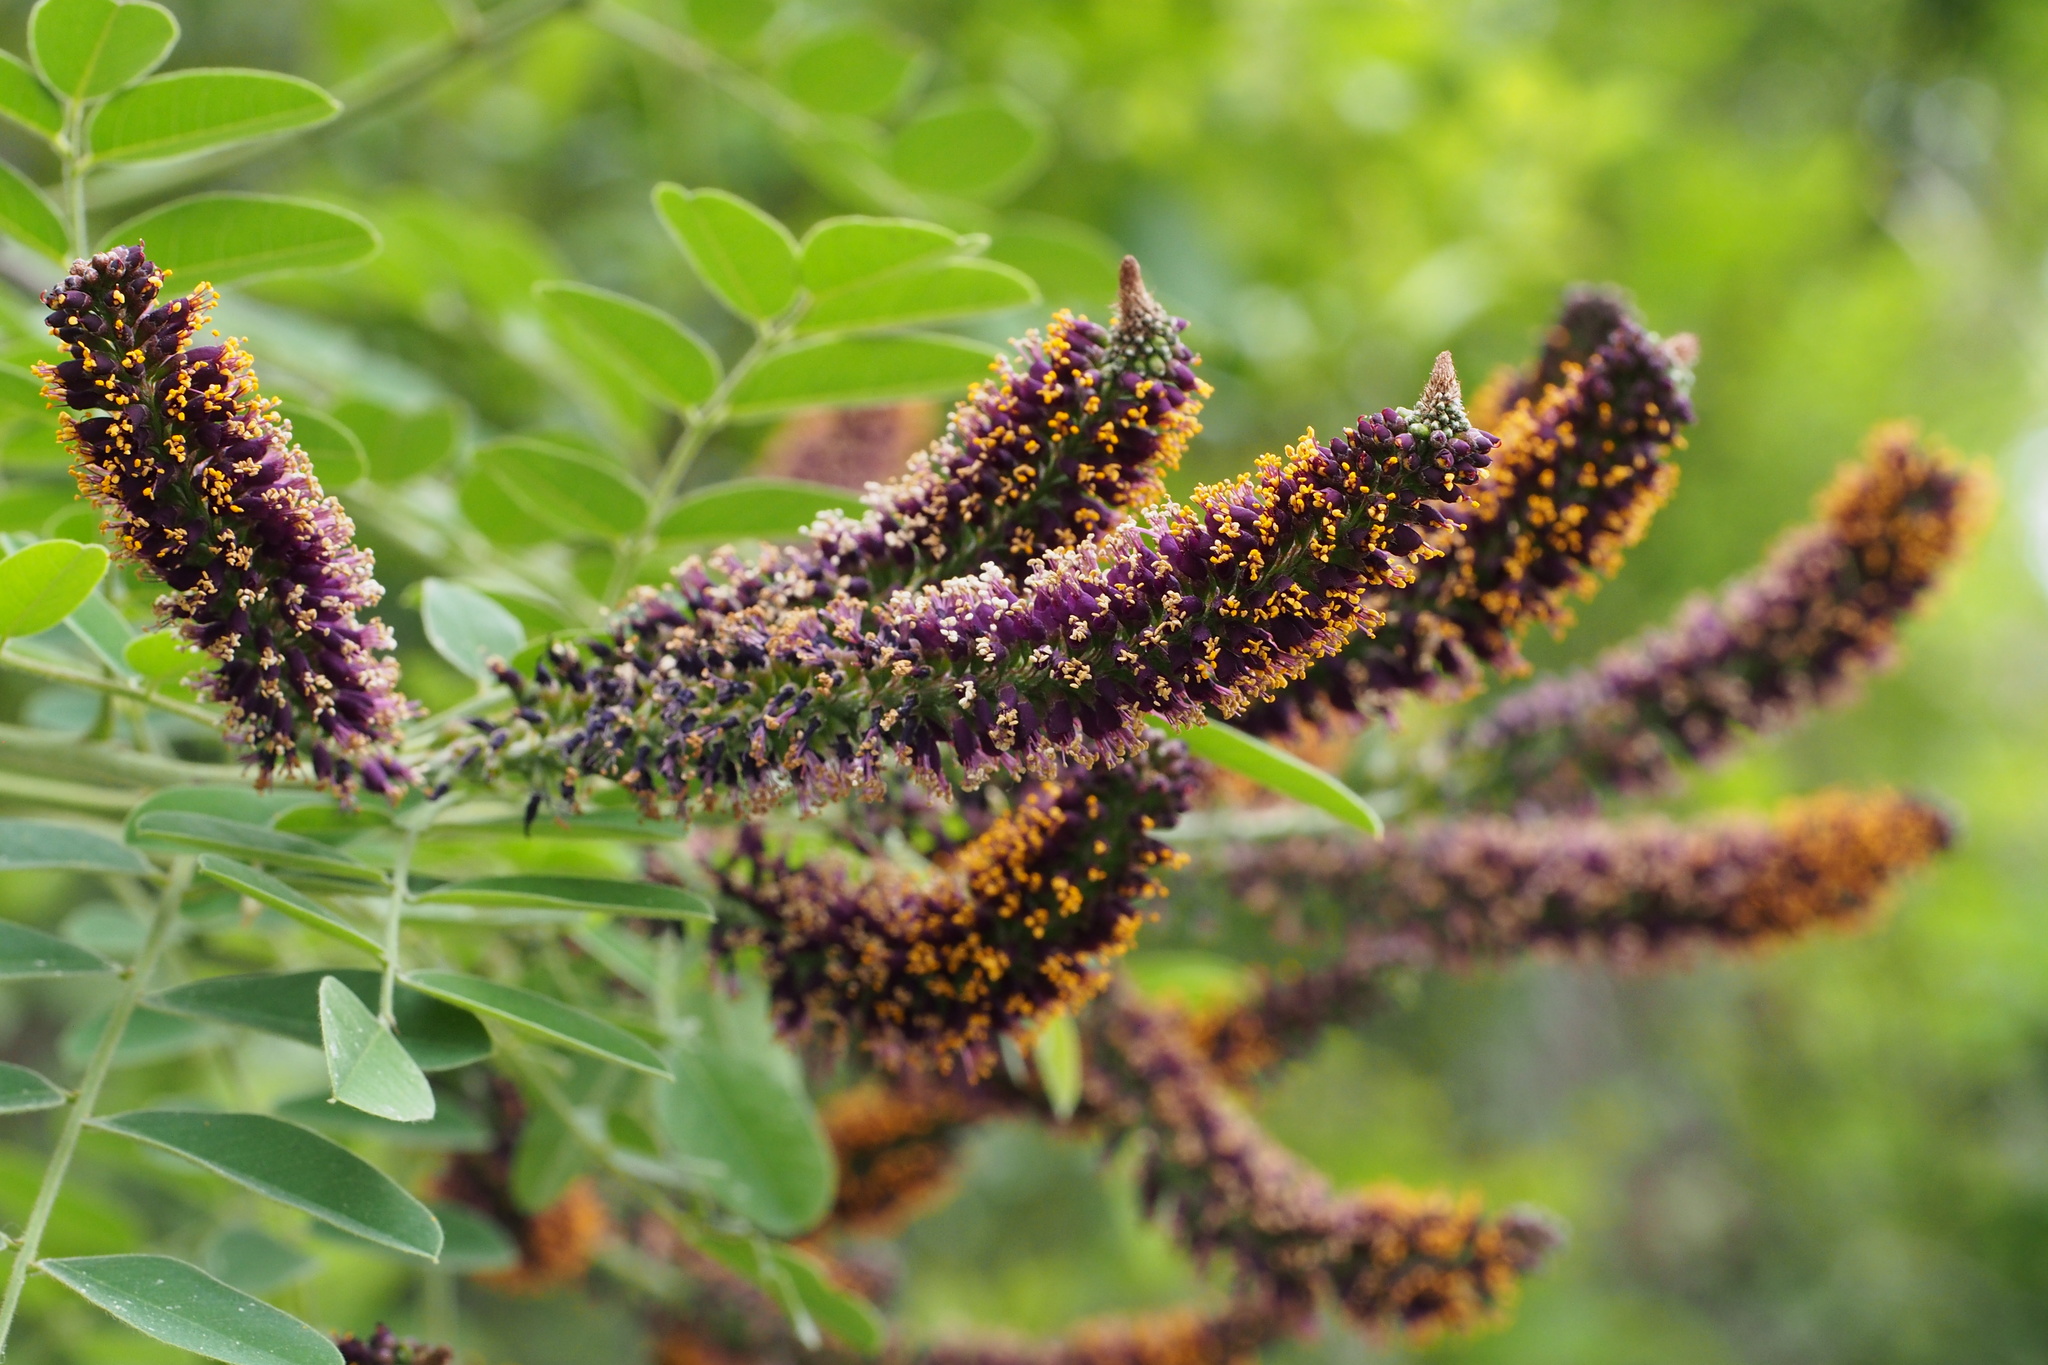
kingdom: Plantae
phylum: Tracheophyta
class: Magnoliopsida
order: Fabales
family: Fabaceae
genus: Amorpha
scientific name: Amorpha fruticosa
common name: False indigo
